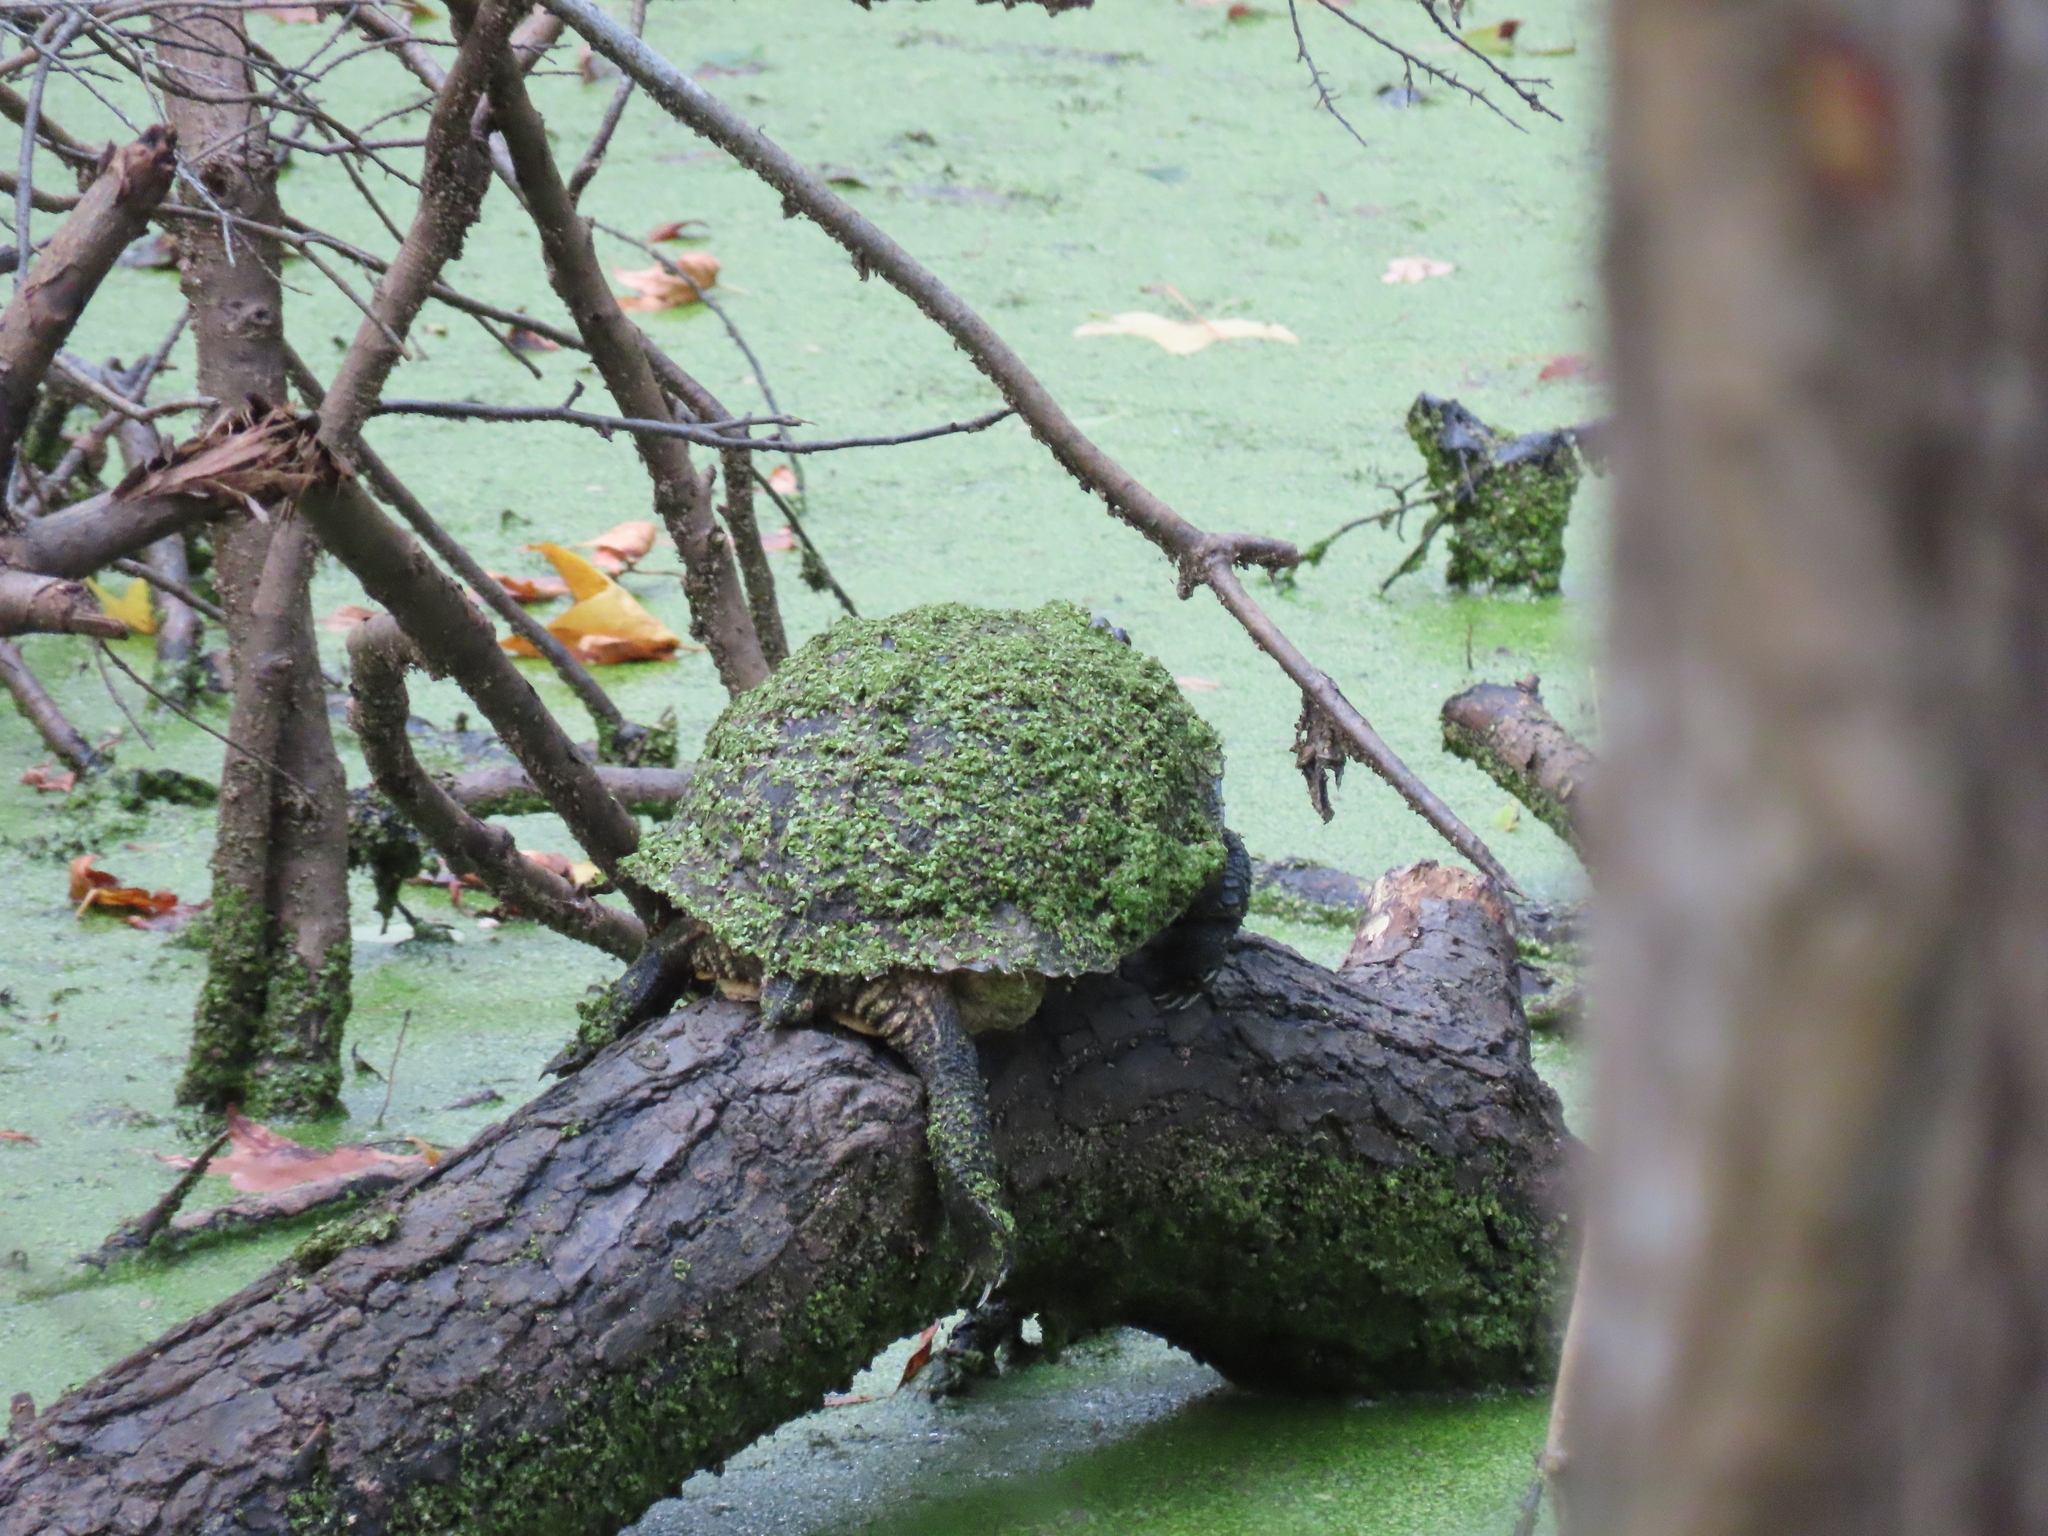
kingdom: Animalia
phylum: Chordata
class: Testudines
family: Emydidae
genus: Trachemys
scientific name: Trachemys scripta
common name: Slider
